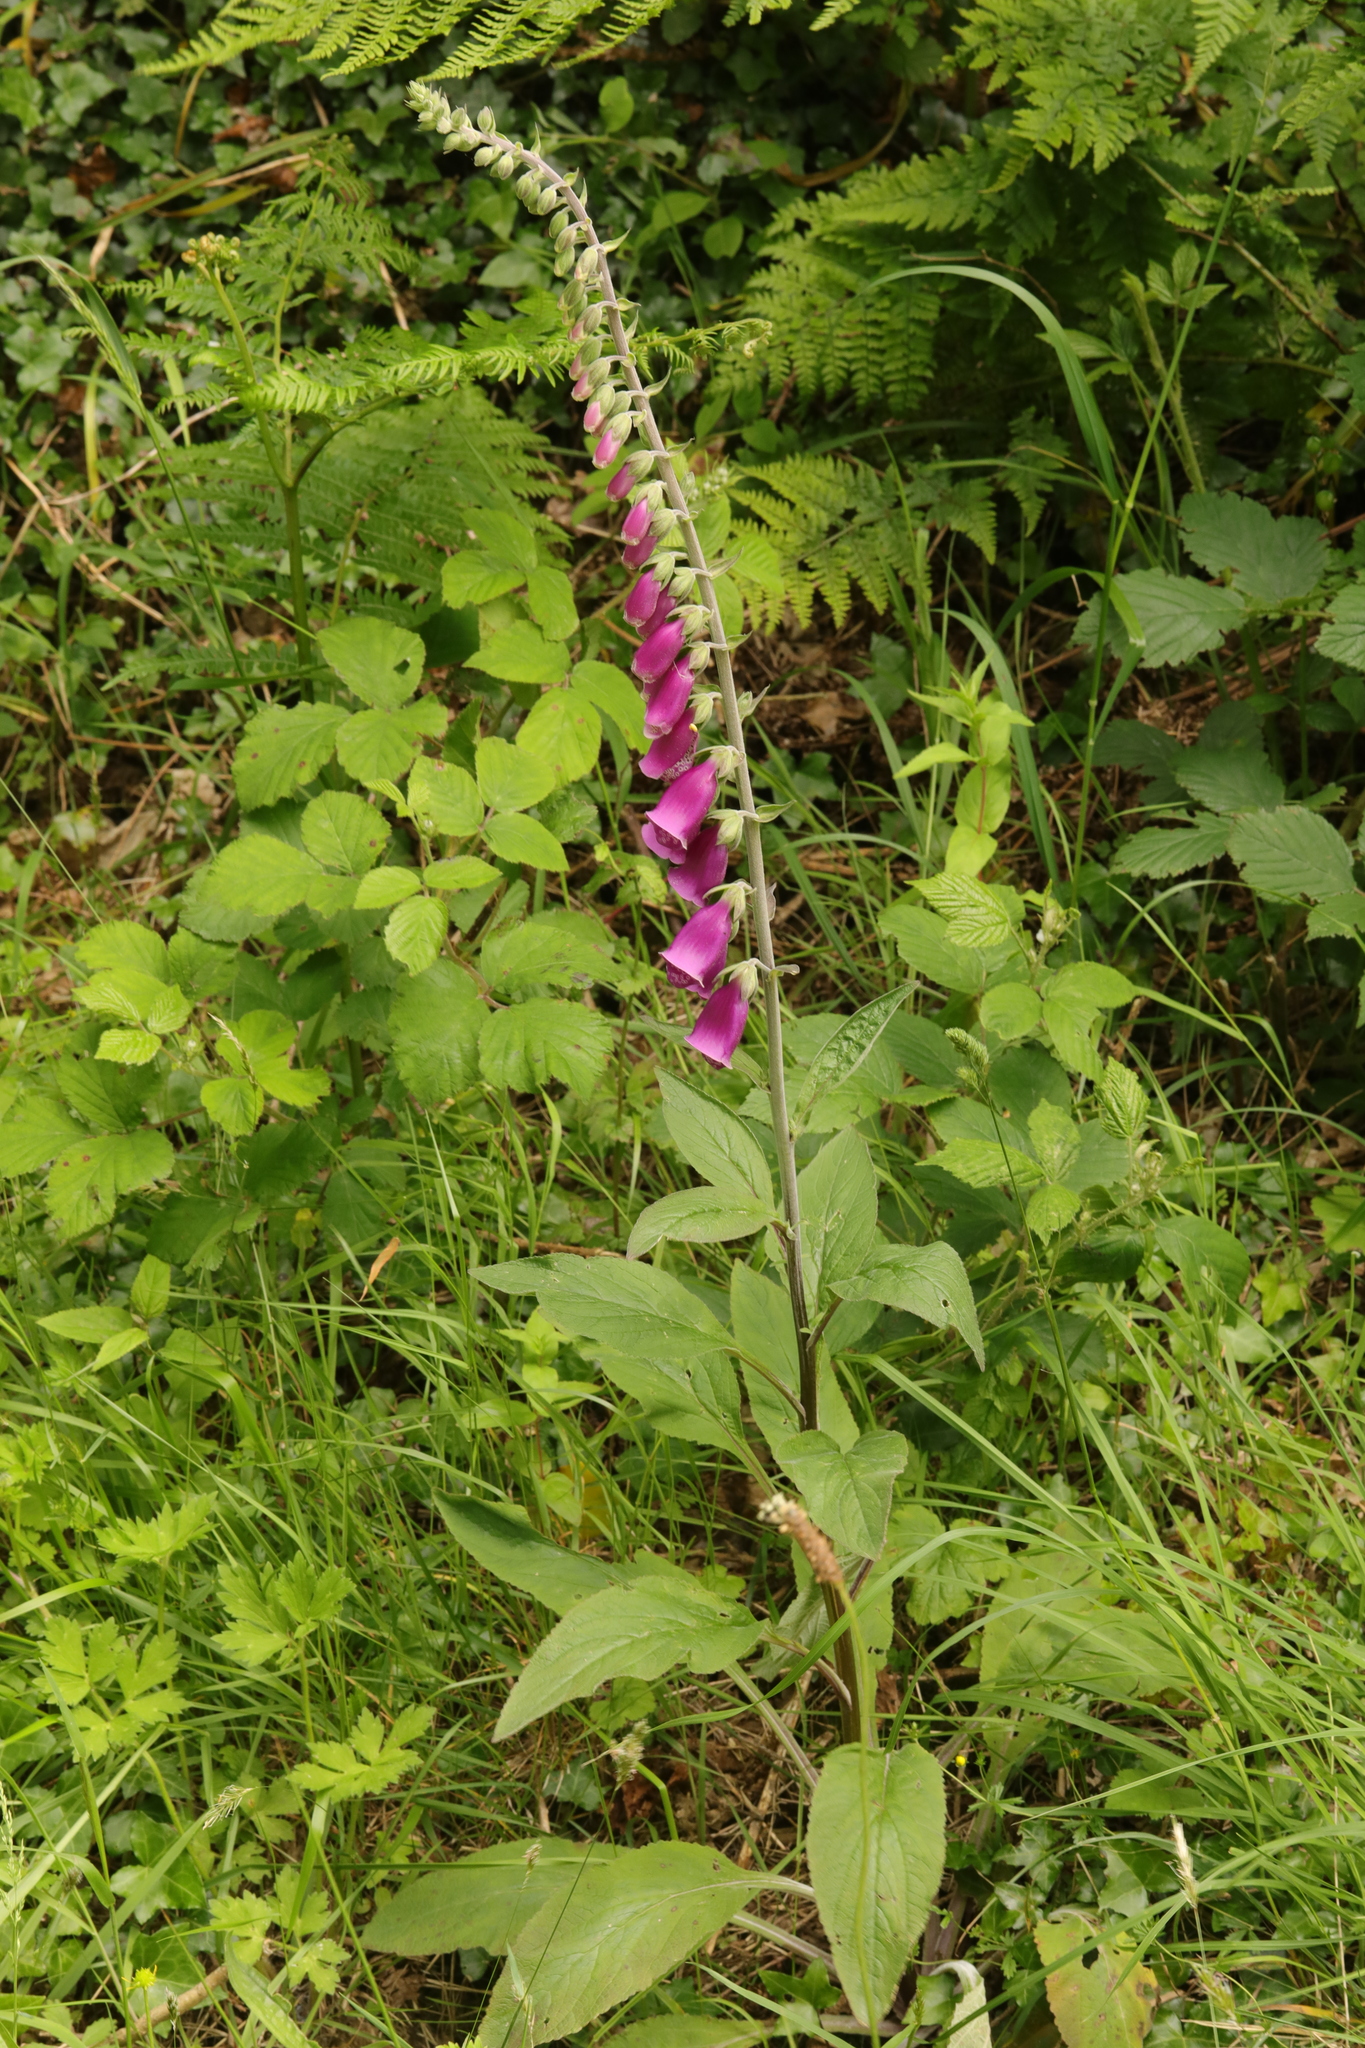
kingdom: Plantae
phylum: Tracheophyta
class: Magnoliopsida
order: Lamiales
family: Plantaginaceae
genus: Digitalis
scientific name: Digitalis purpurea
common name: Foxglove
